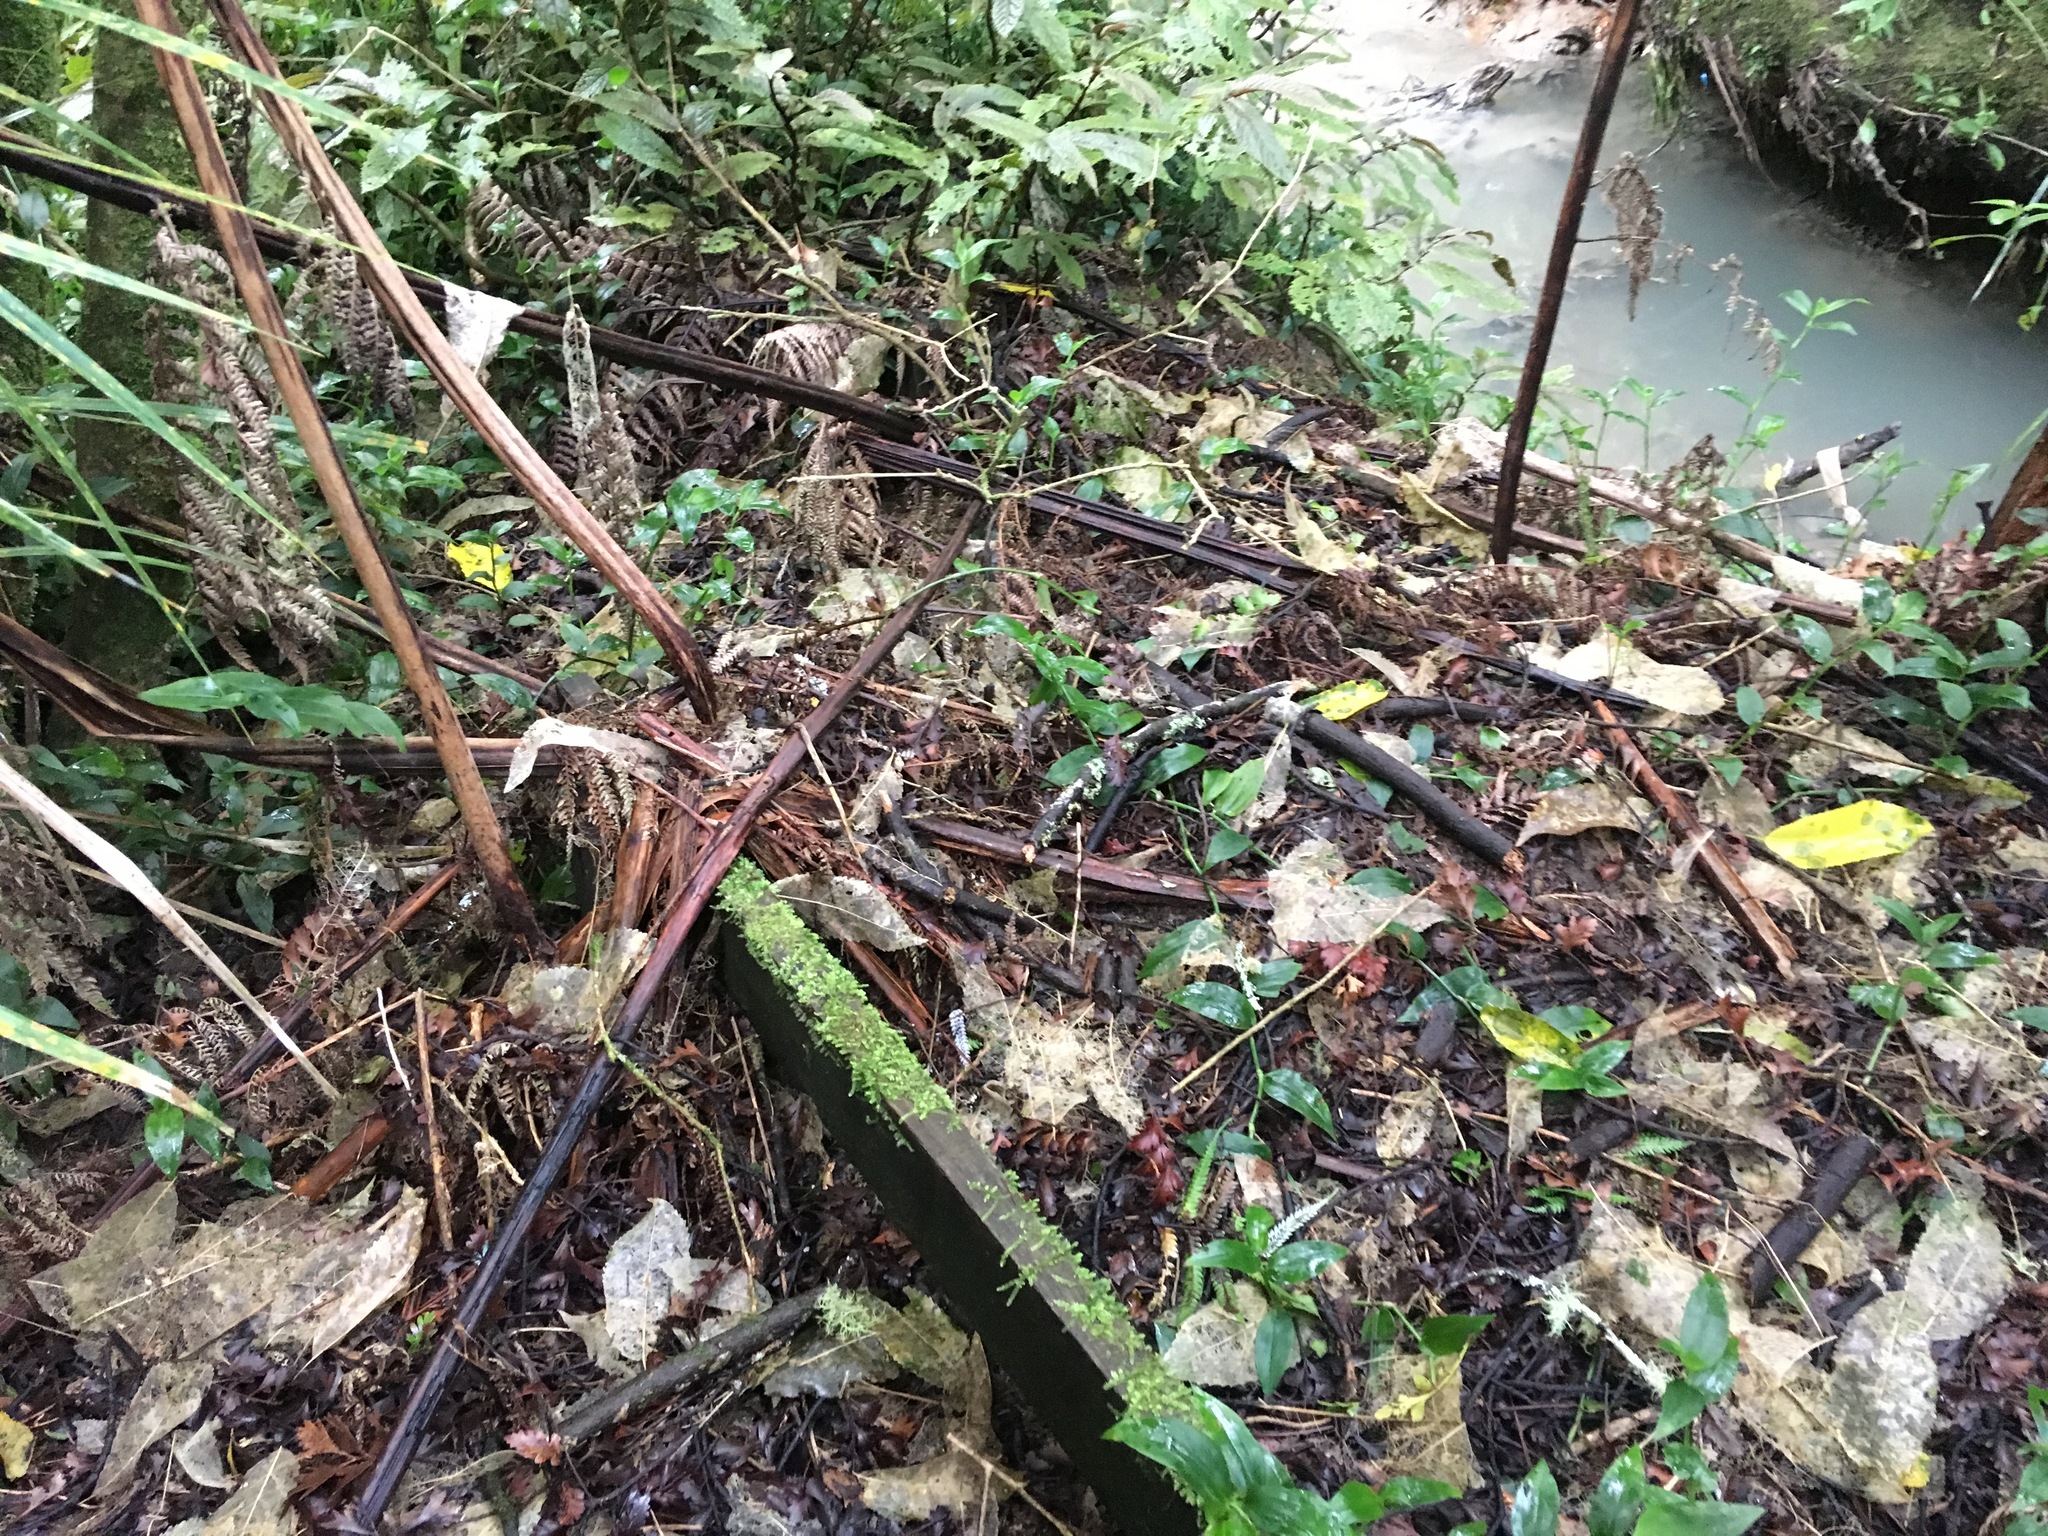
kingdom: Plantae
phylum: Tracheophyta
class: Liliopsida
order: Commelinales
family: Commelinaceae
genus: Tradescantia
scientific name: Tradescantia fluminensis
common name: Wandering-jew
